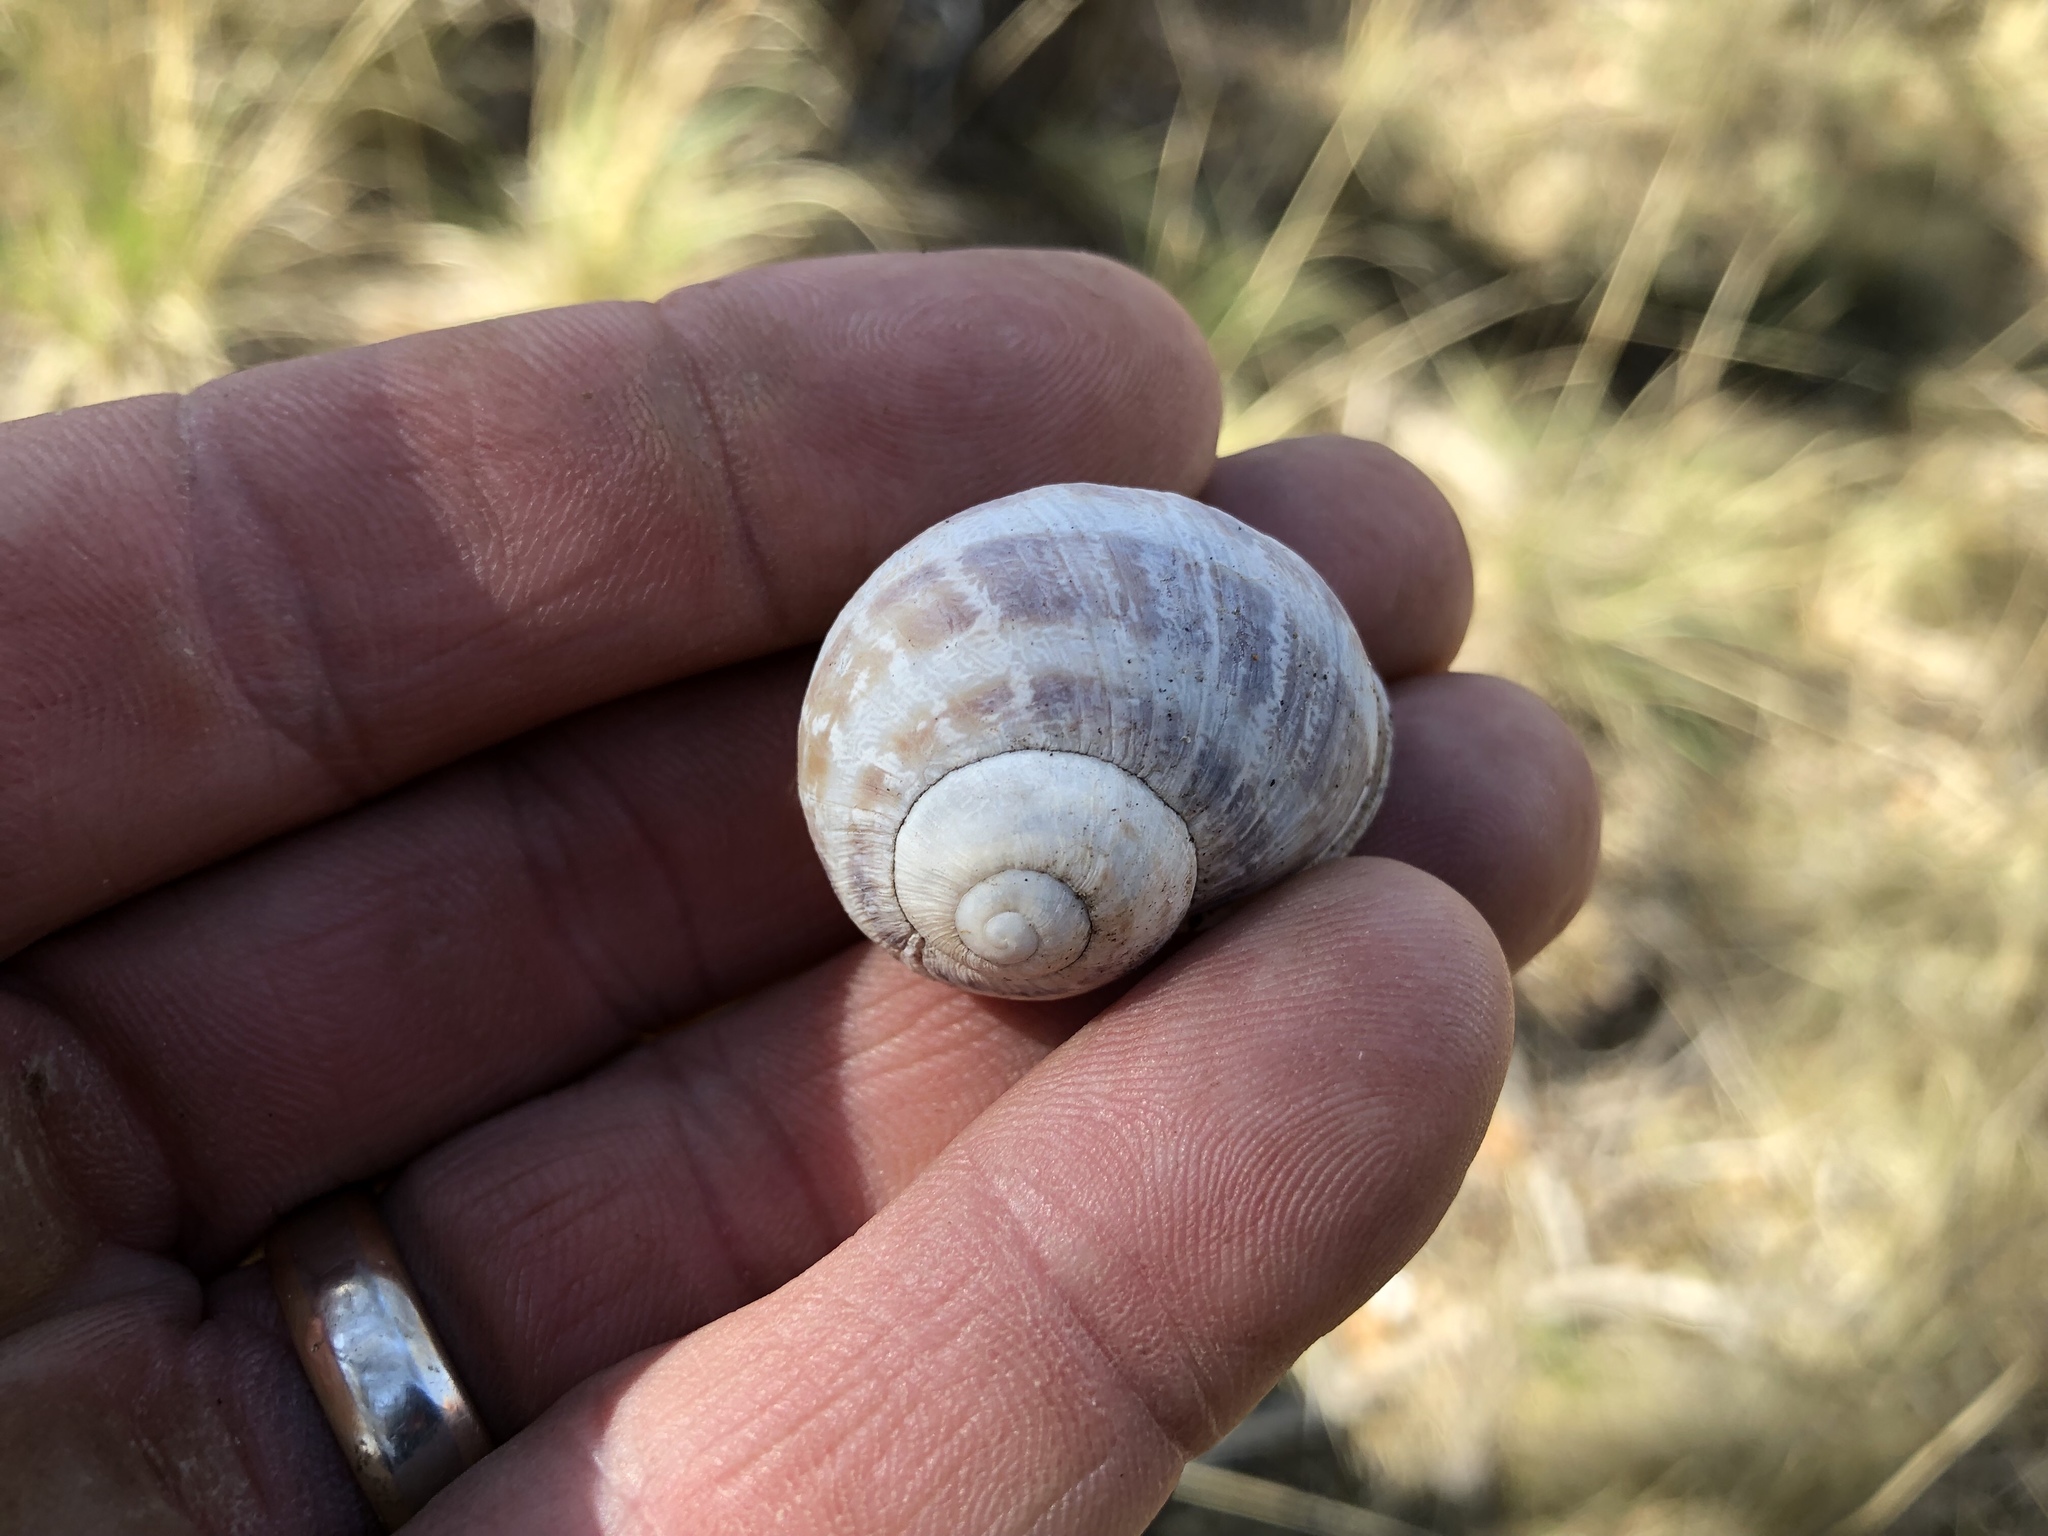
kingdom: Animalia
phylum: Mollusca
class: Gastropoda
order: Stylommatophora
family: Helicidae
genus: Cornu
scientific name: Cornu aspersum
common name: Brown garden snail
